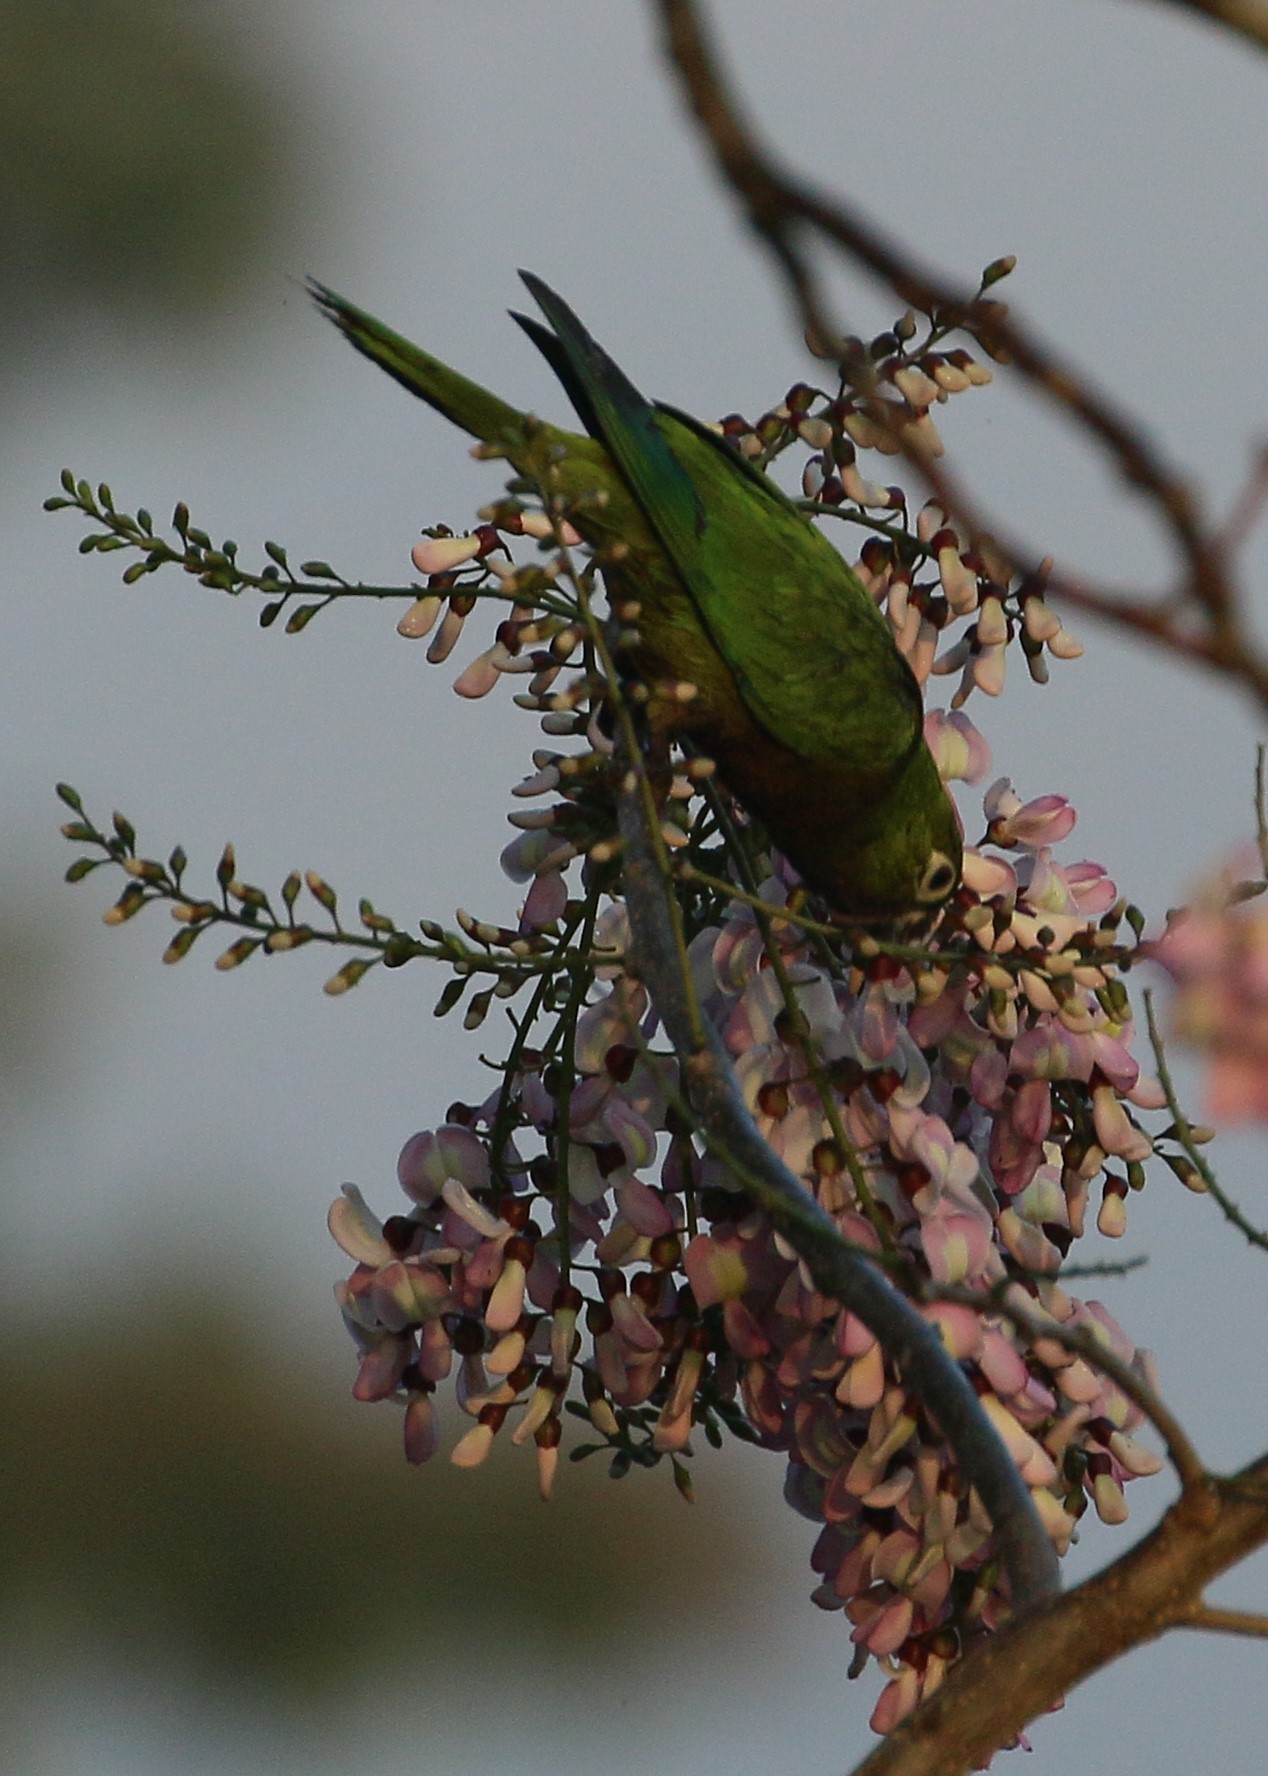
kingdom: Animalia
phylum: Chordata
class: Aves
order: Psittaciformes
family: Psittacidae
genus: Aratinga
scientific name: Aratinga nana
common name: Olive-throated parakeet
